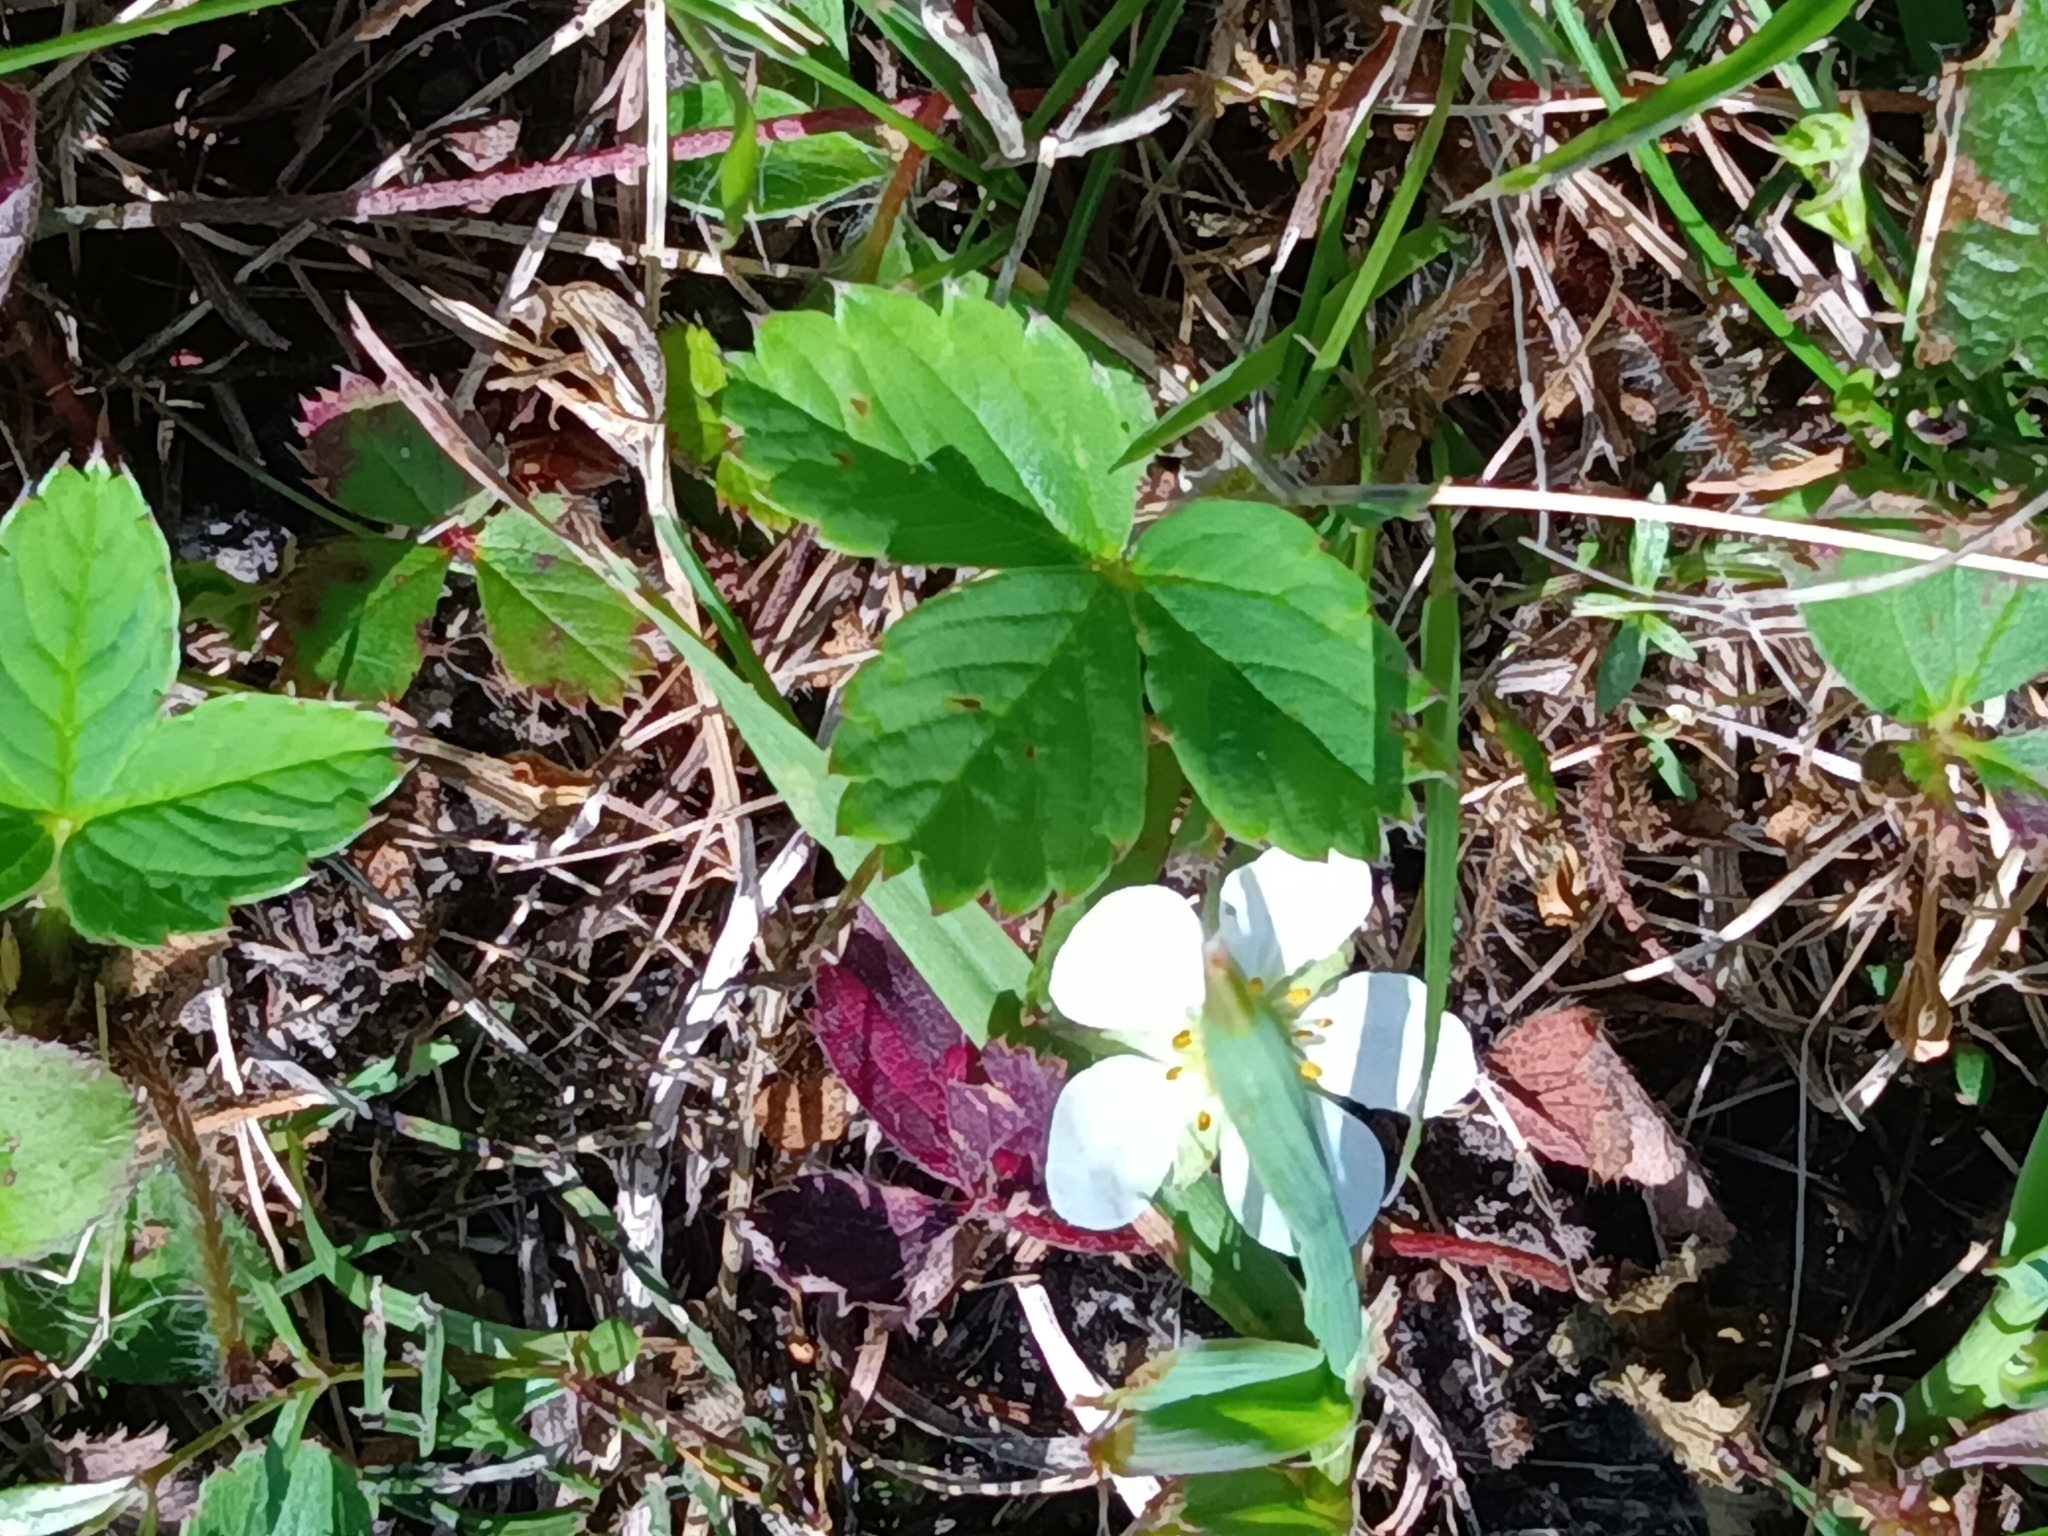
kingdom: Plantae
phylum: Tracheophyta
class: Magnoliopsida
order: Rosales
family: Rosaceae
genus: Fragaria
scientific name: Fragaria virginiana
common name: Thickleaved wild strawberry
